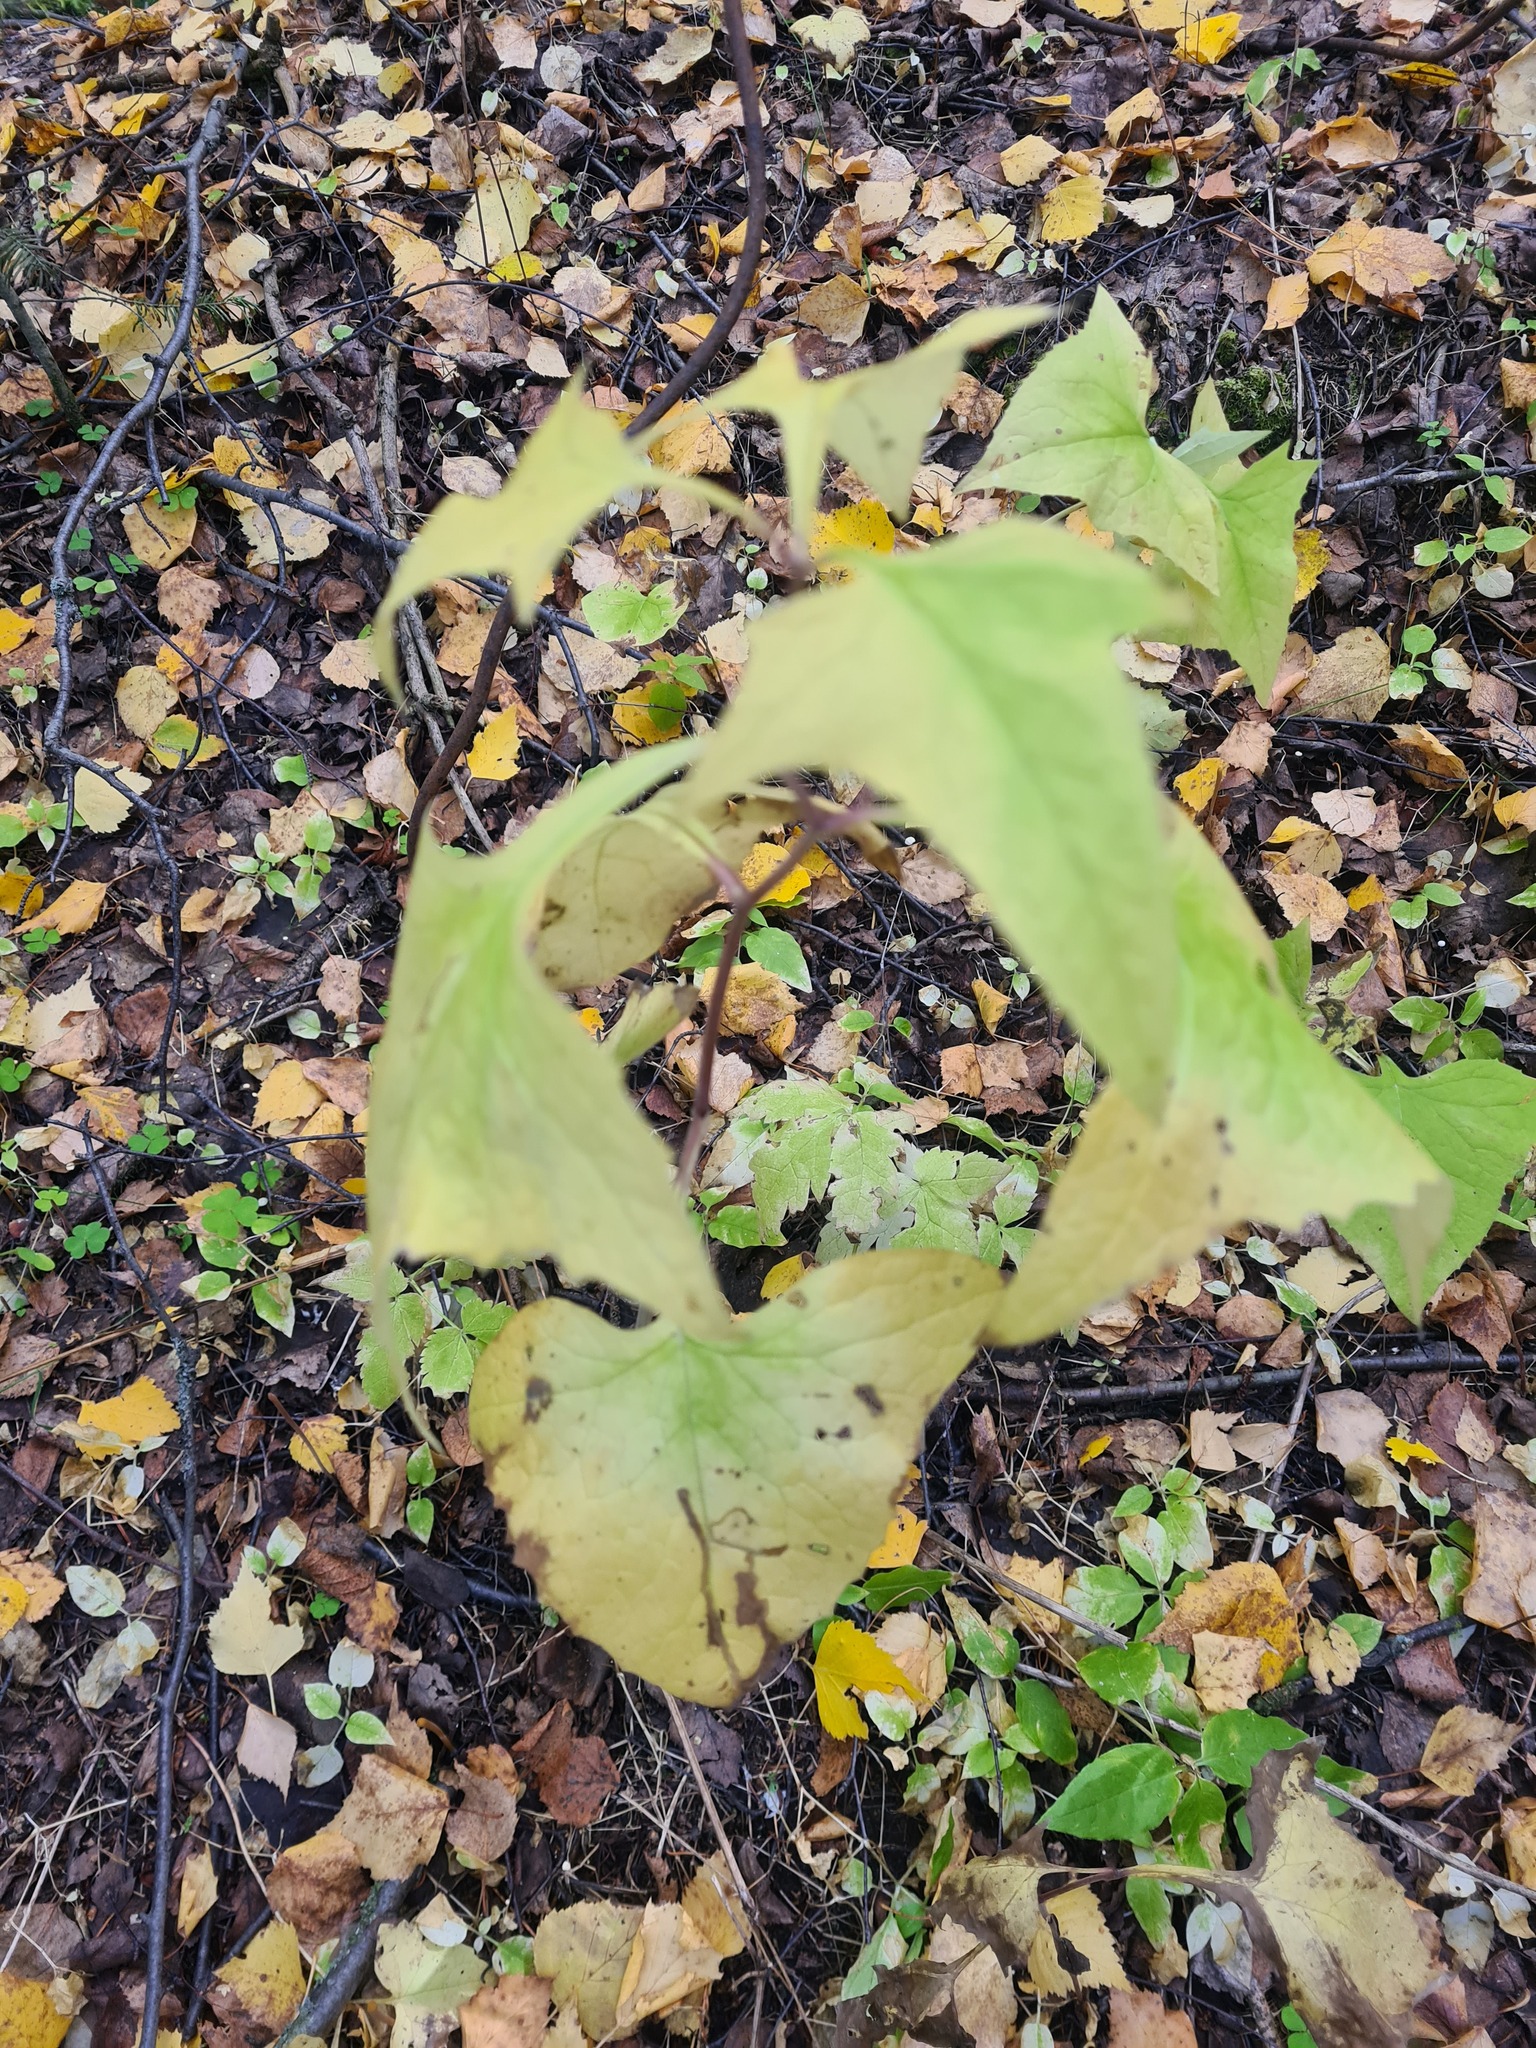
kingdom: Plantae
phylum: Tracheophyta
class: Magnoliopsida
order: Asterales
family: Asteraceae
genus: Parasenecio
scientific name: Parasenecio hastatus
